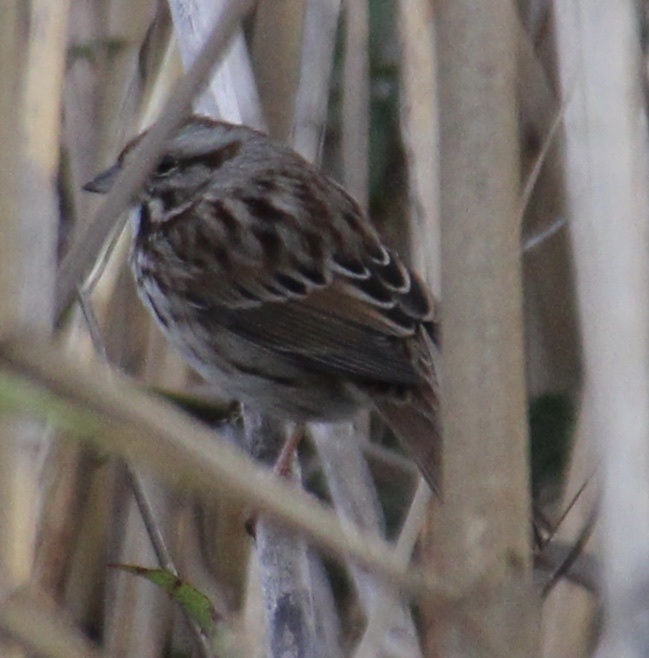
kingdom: Animalia
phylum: Chordata
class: Aves
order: Passeriformes
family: Passerellidae
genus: Melospiza
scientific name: Melospiza melodia
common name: Song sparrow
